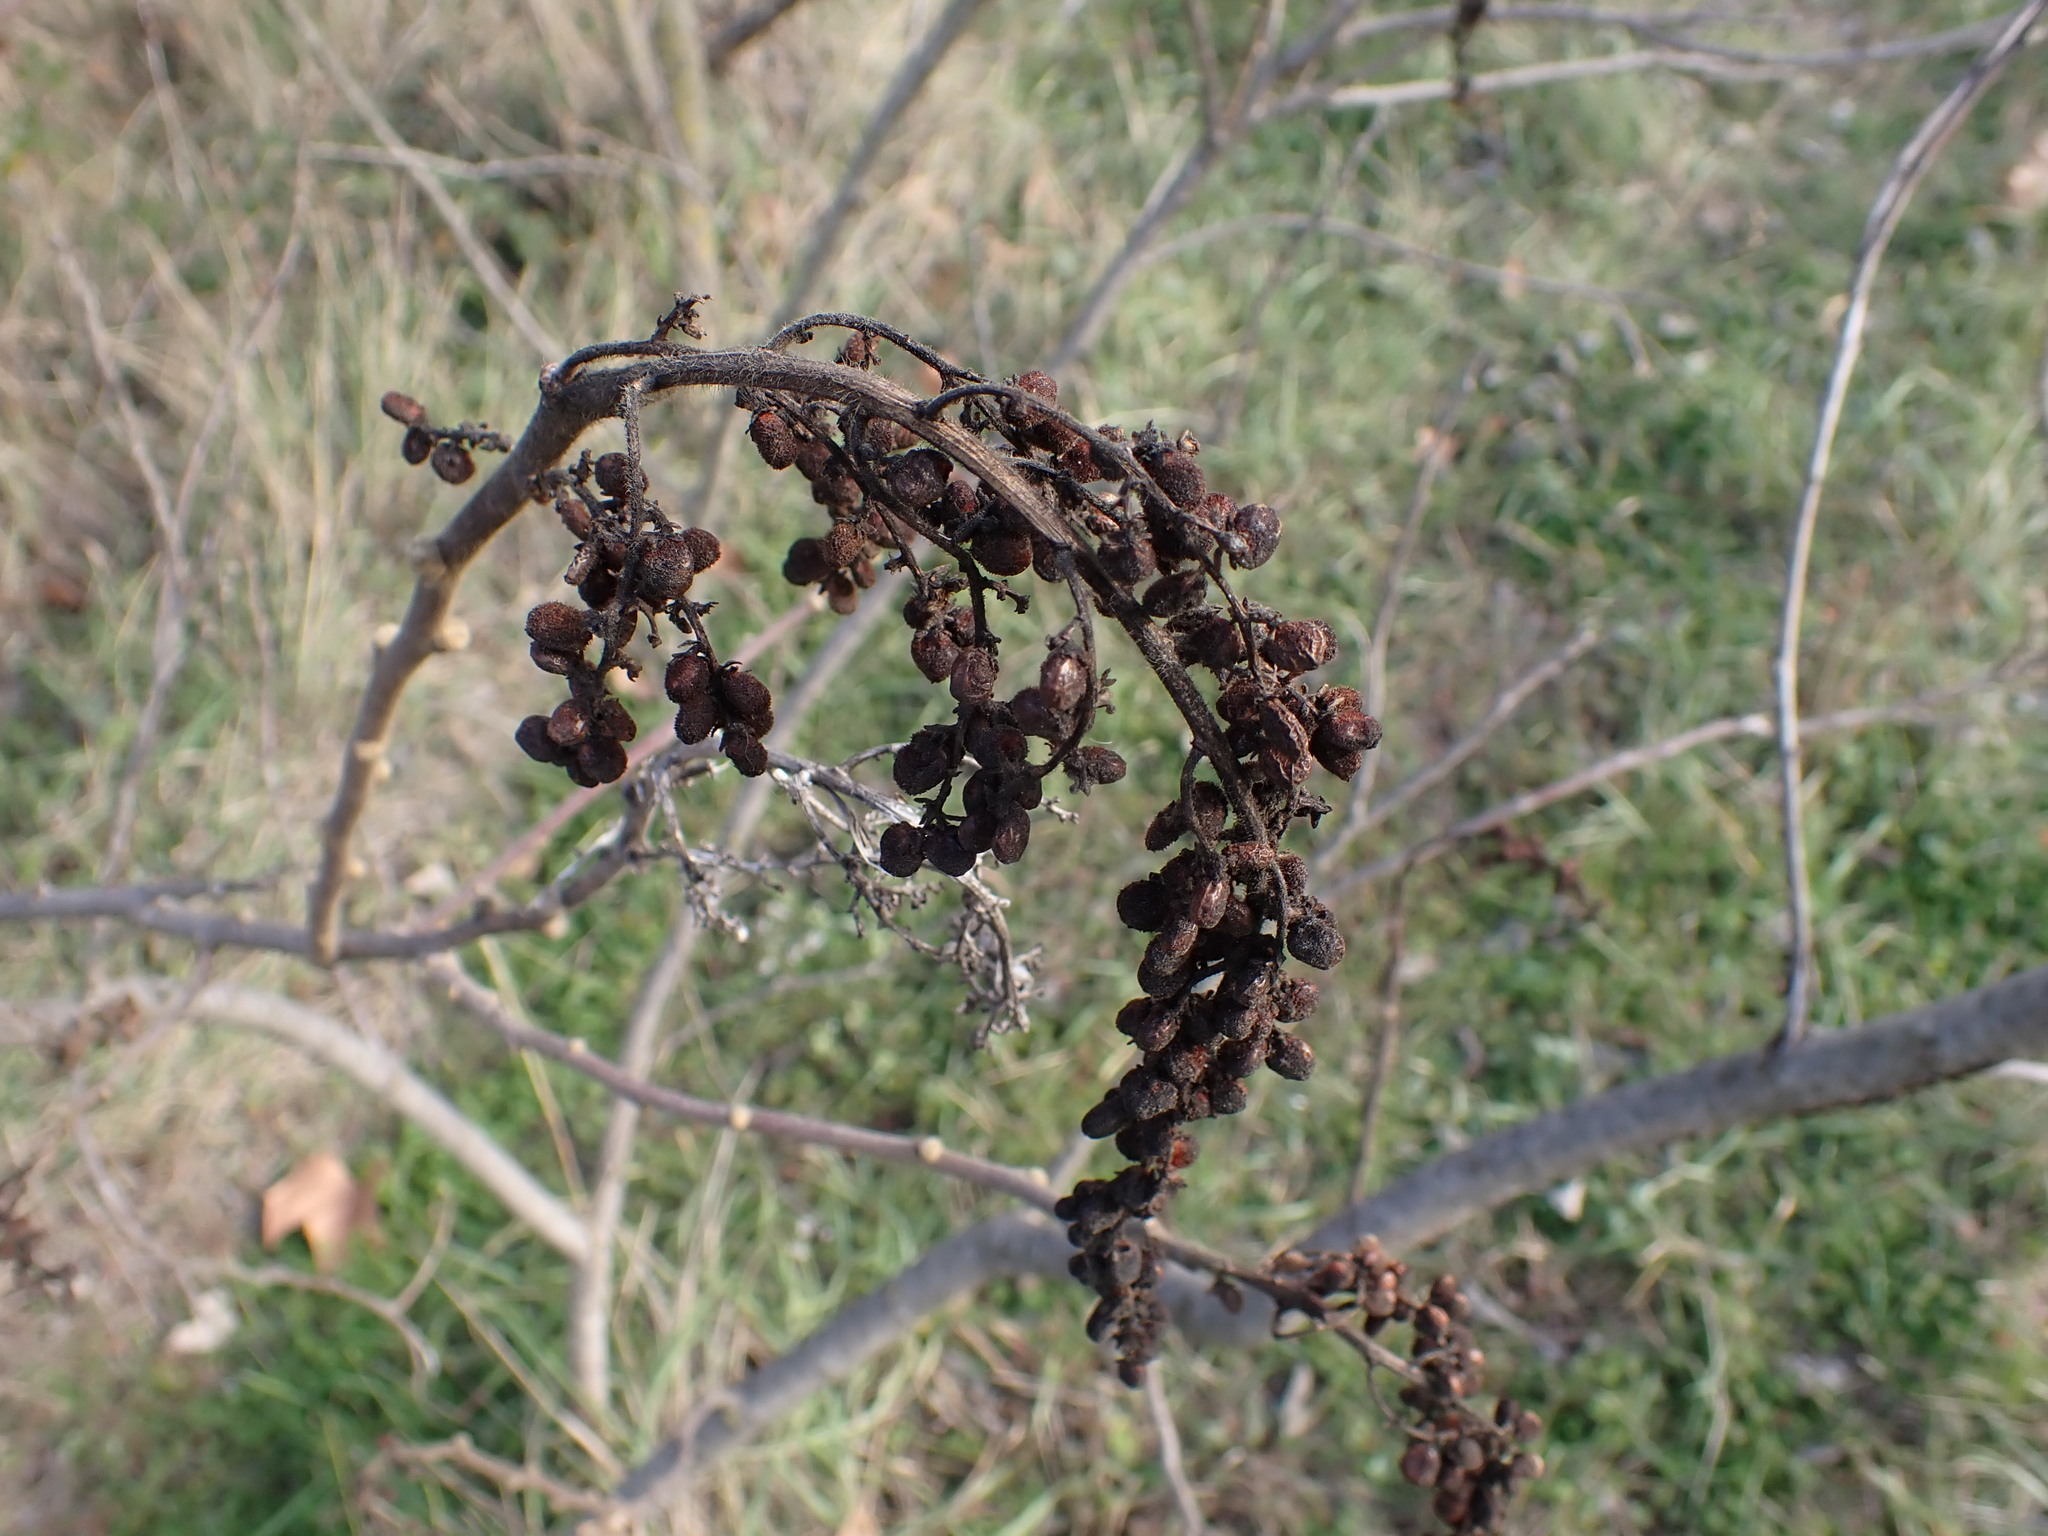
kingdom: Plantae
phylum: Tracheophyta
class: Magnoliopsida
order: Sapindales
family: Anacardiaceae
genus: Rhus
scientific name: Rhus coriaria
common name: Tanner's sumach
